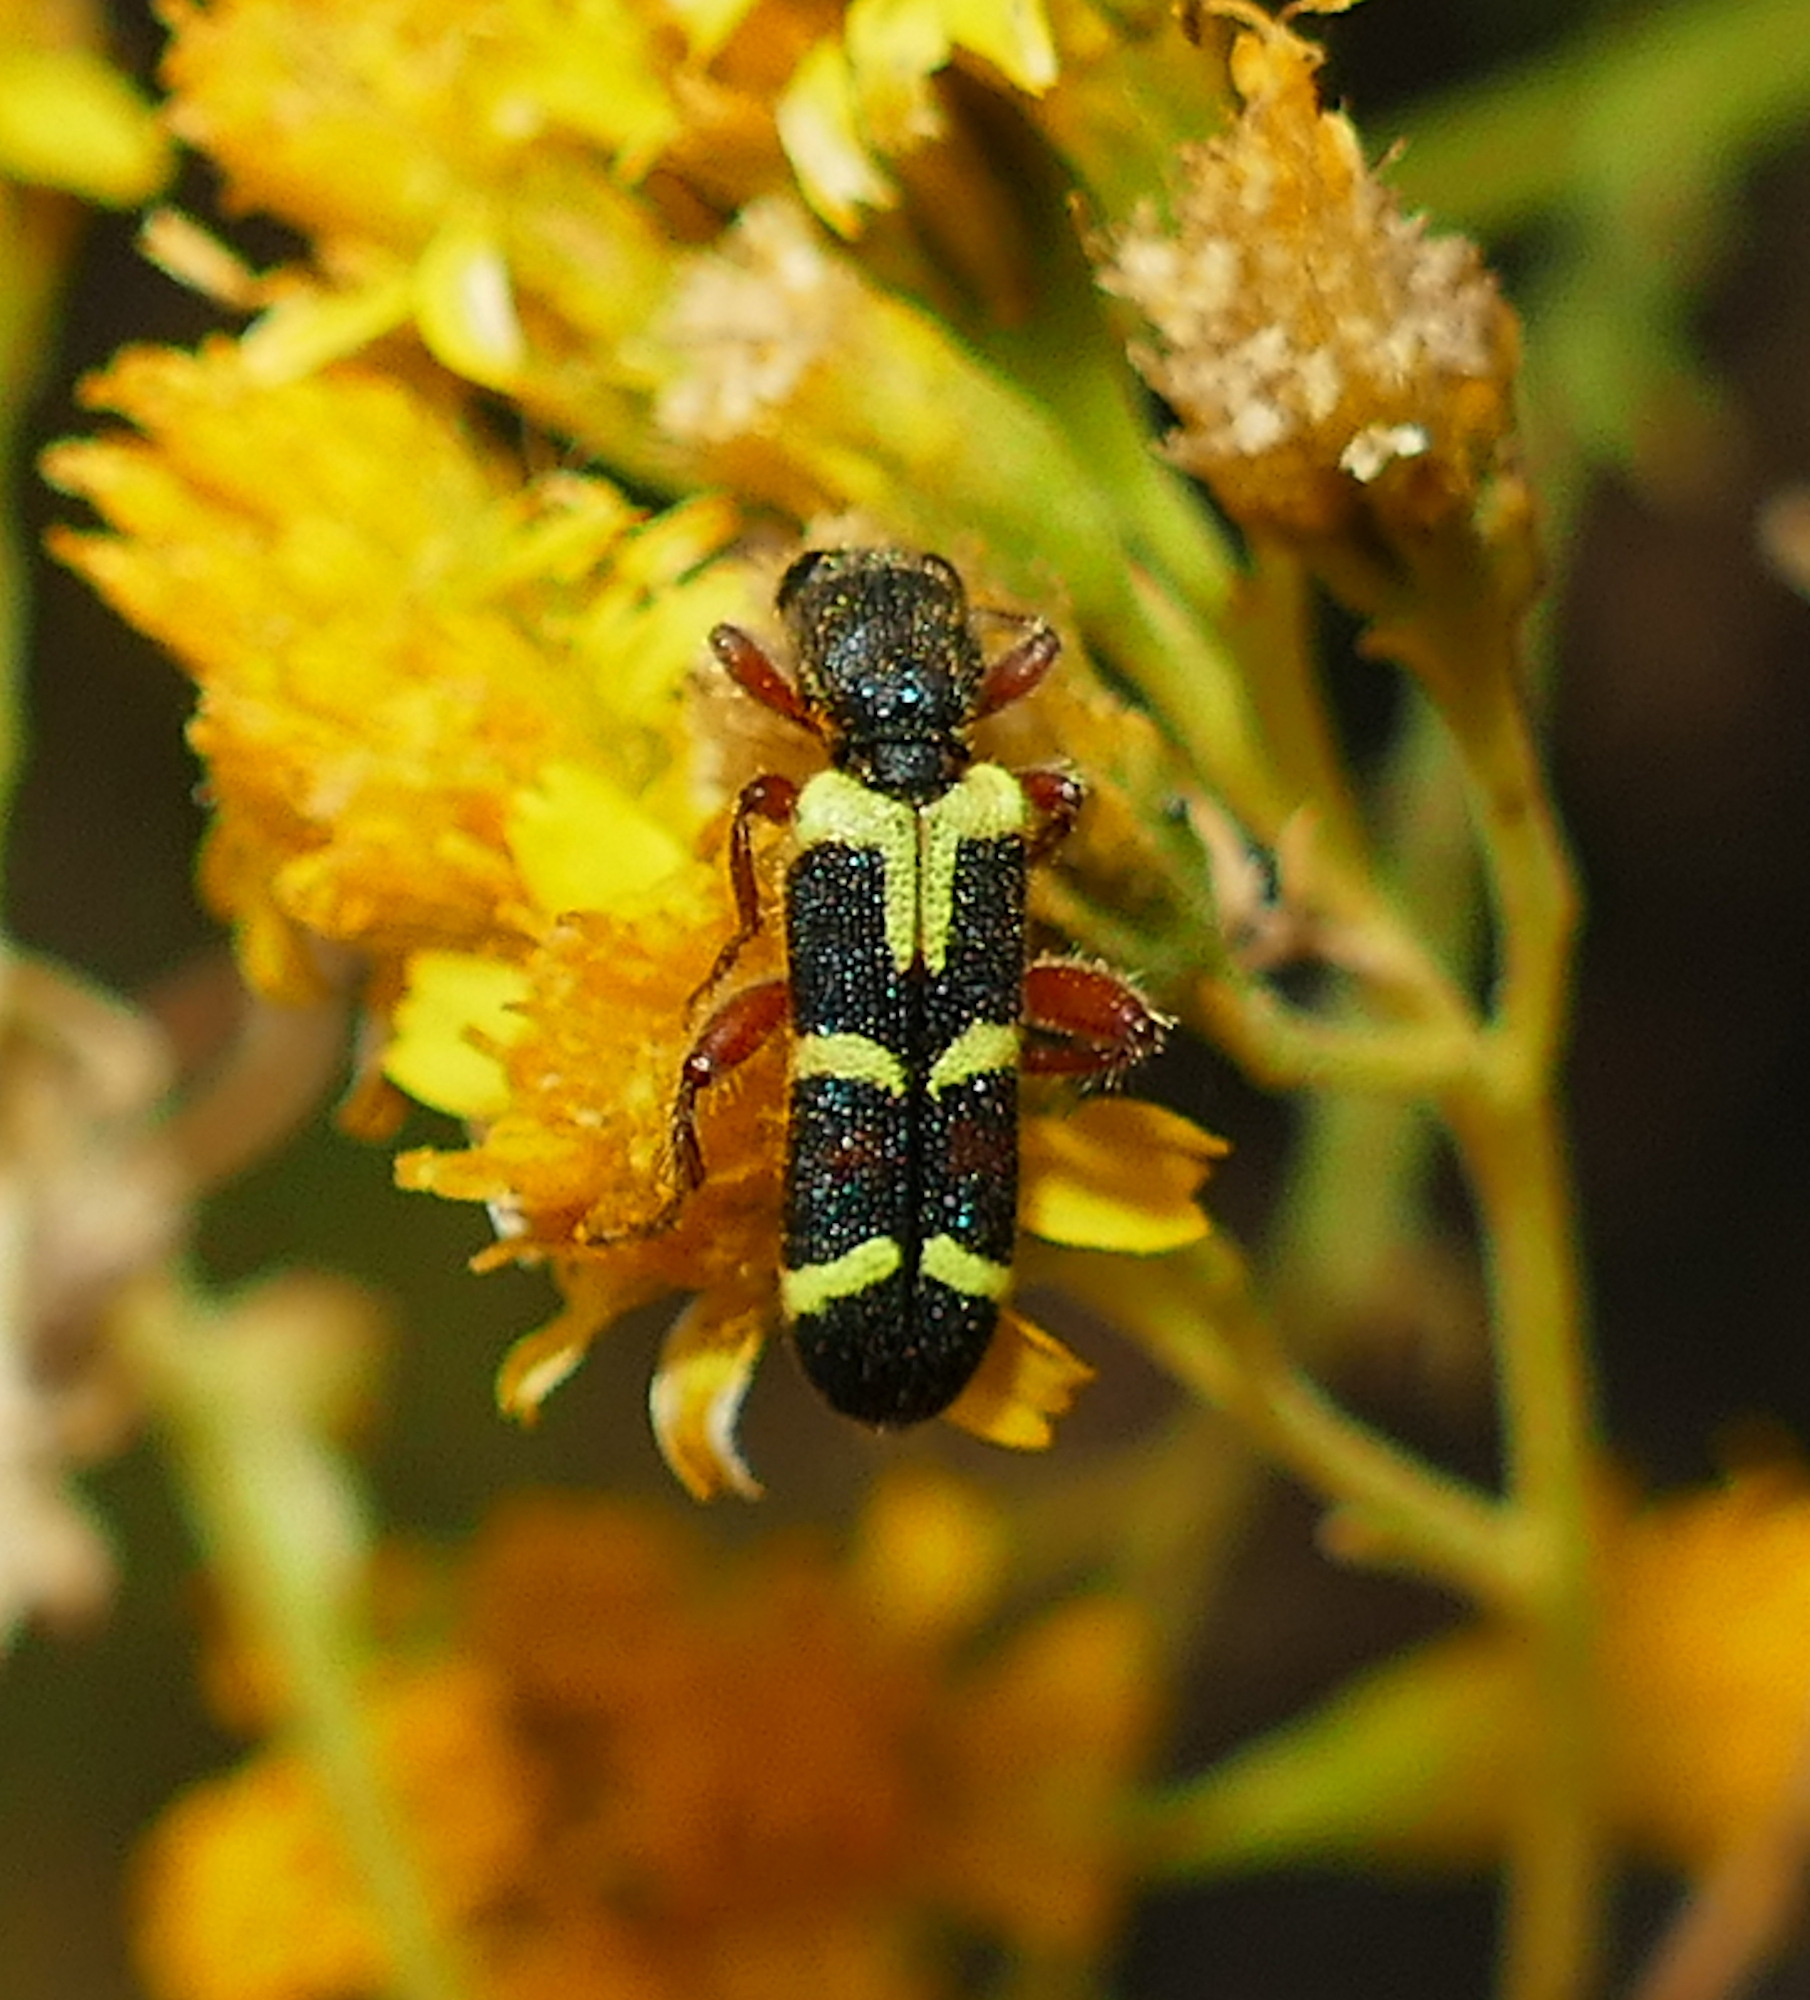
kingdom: Animalia
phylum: Arthropoda
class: Insecta
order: Coleoptera
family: Cleridae
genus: Trichodes
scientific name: Trichodes peninsularis
